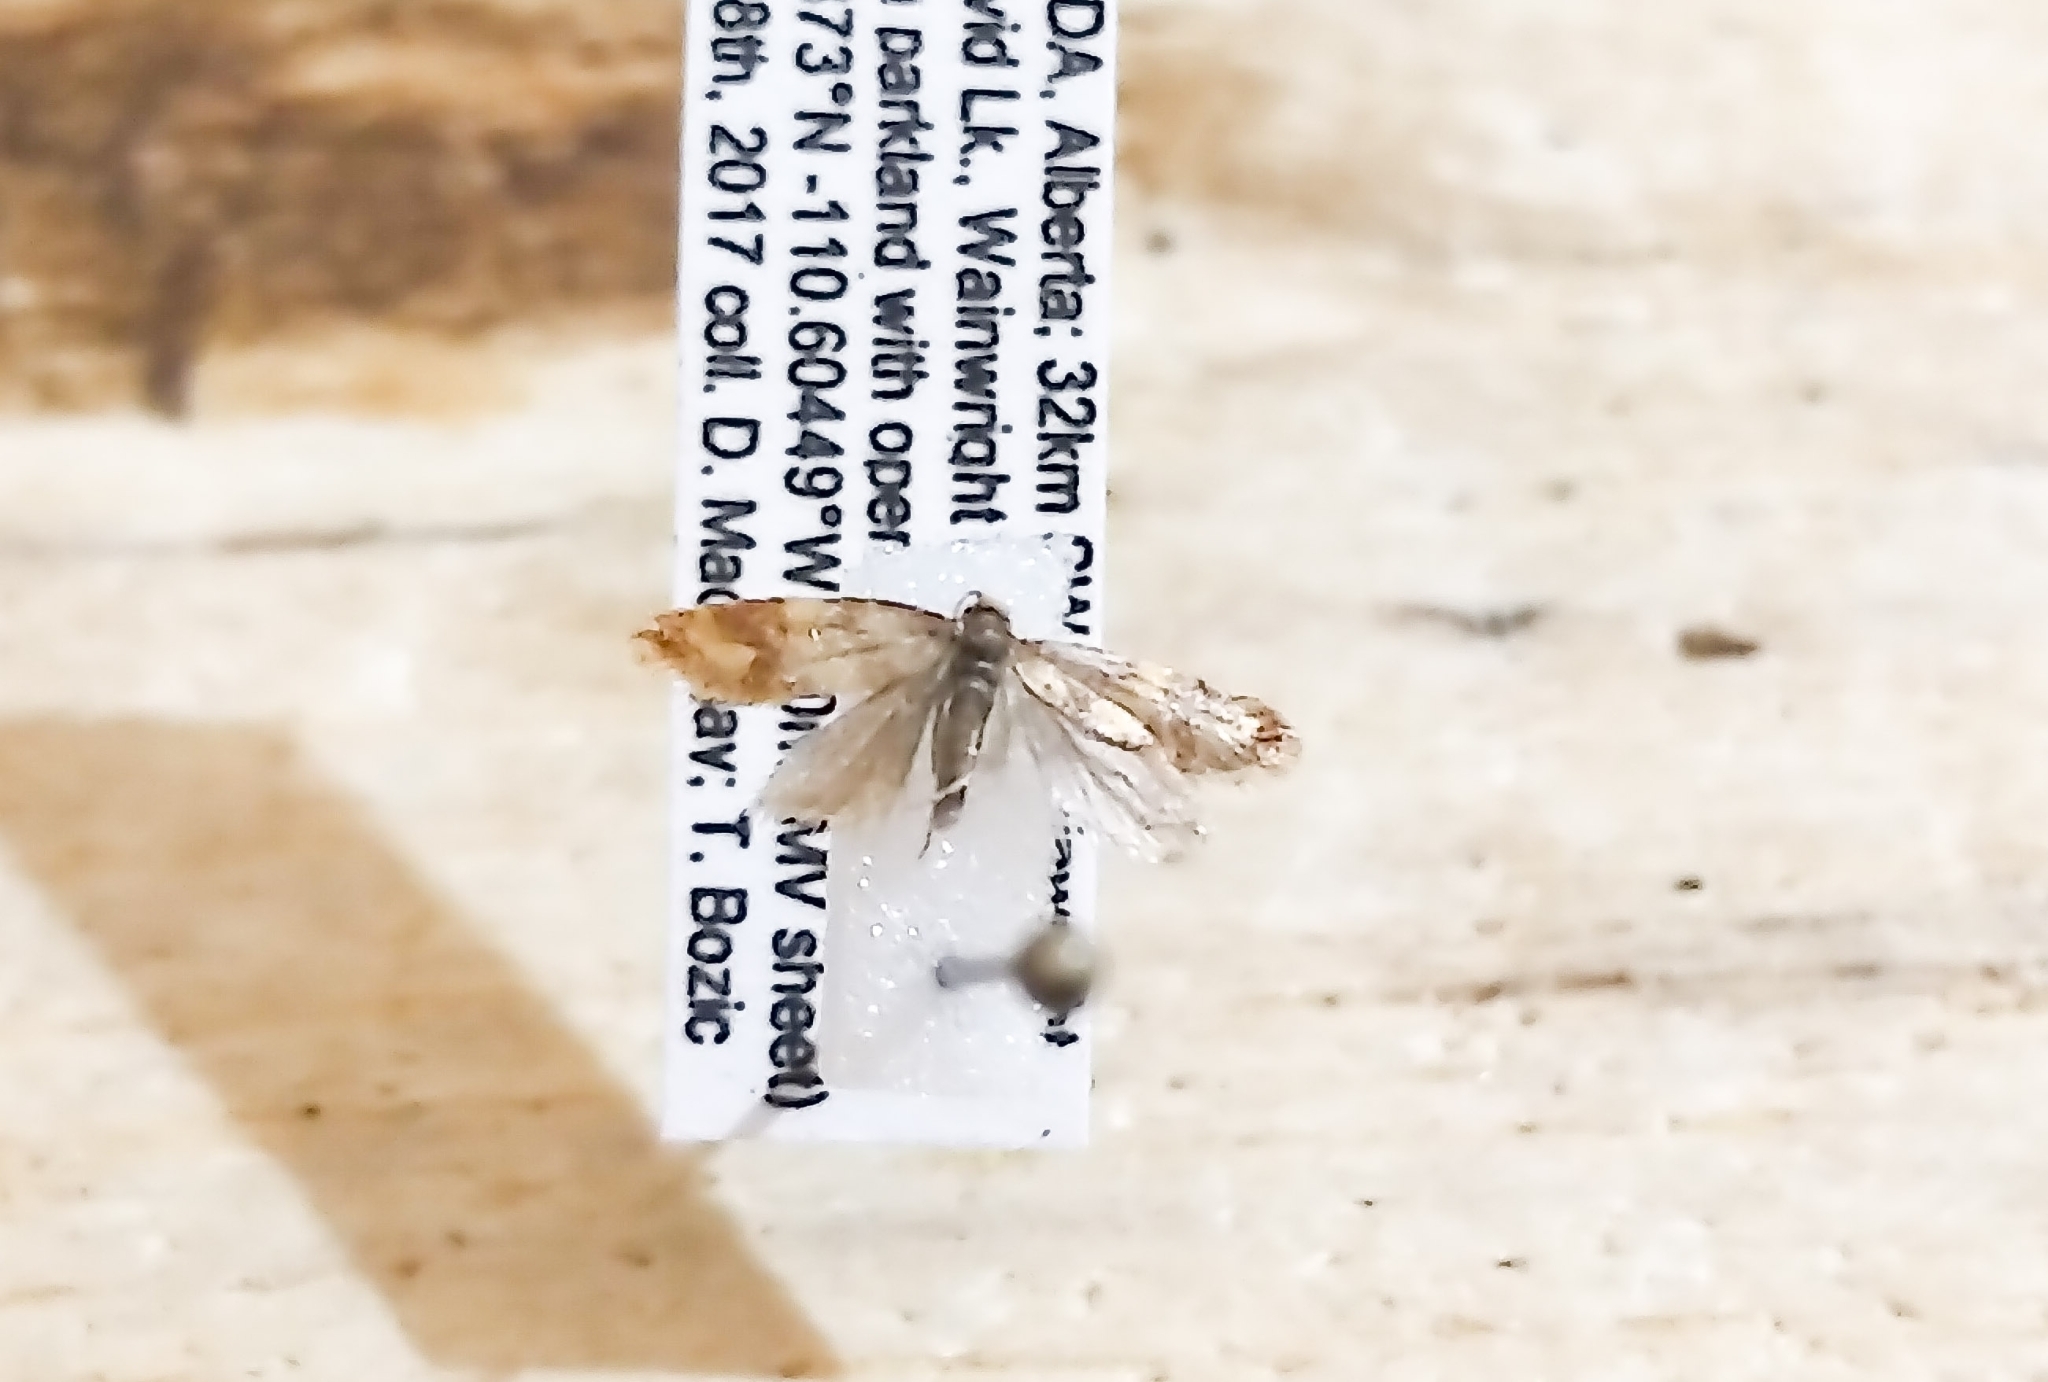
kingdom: Animalia
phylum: Arthropoda
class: Insecta
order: Lepidoptera
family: Tortricidae
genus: Aethes
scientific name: Aethes rutilana
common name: Juniper conch, pale juniper webworm
